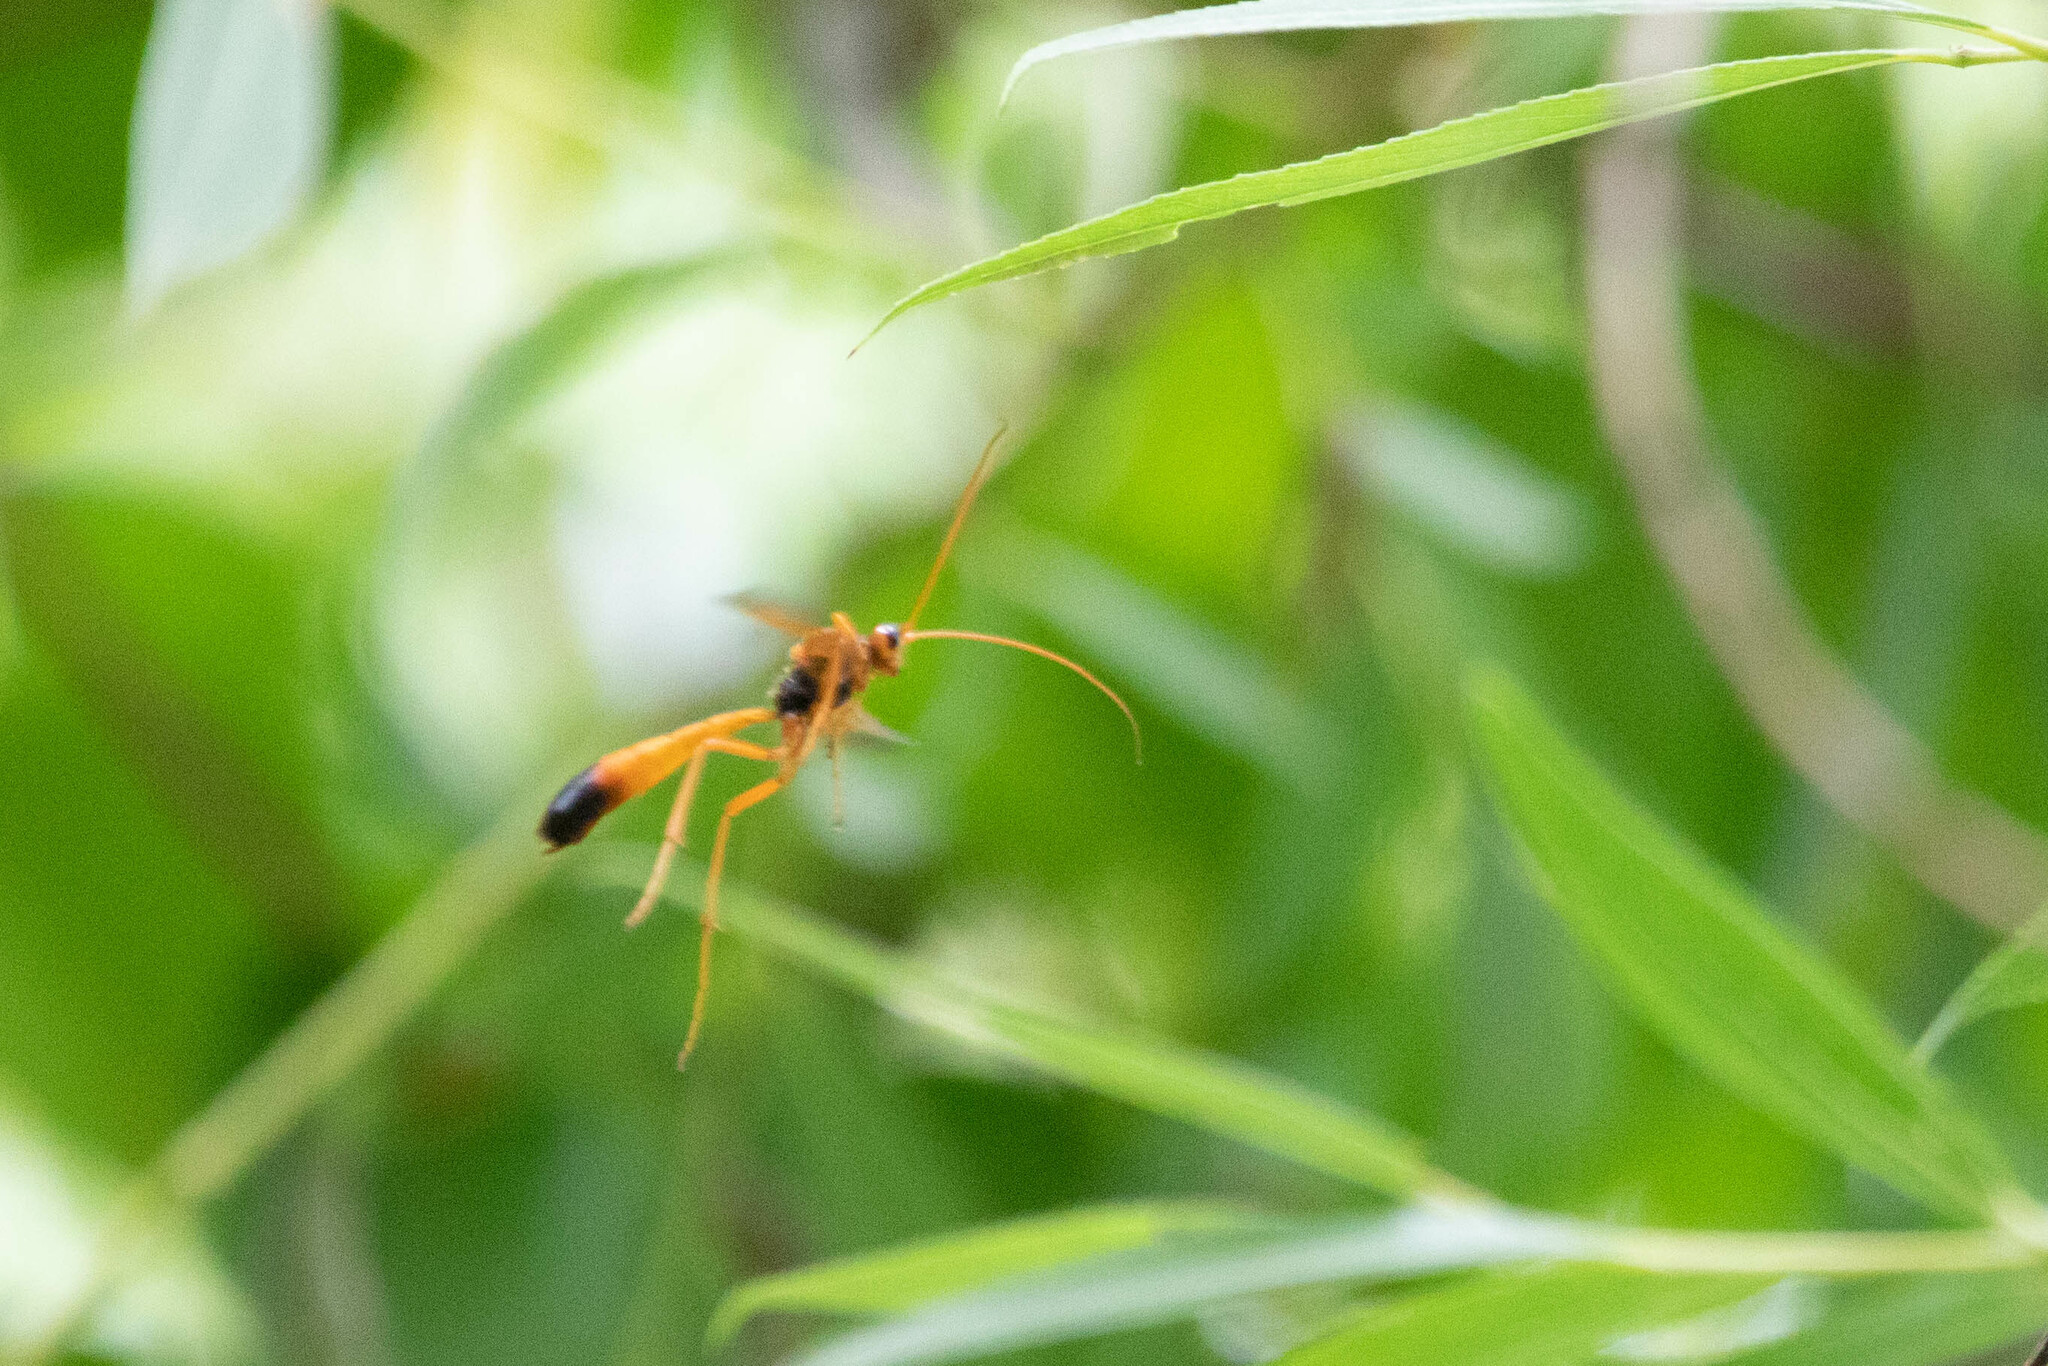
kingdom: Animalia
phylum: Arthropoda
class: Insecta
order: Hymenoptera
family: Ichneumonidae
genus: Opheltes
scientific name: Opheltes glaucopterus
